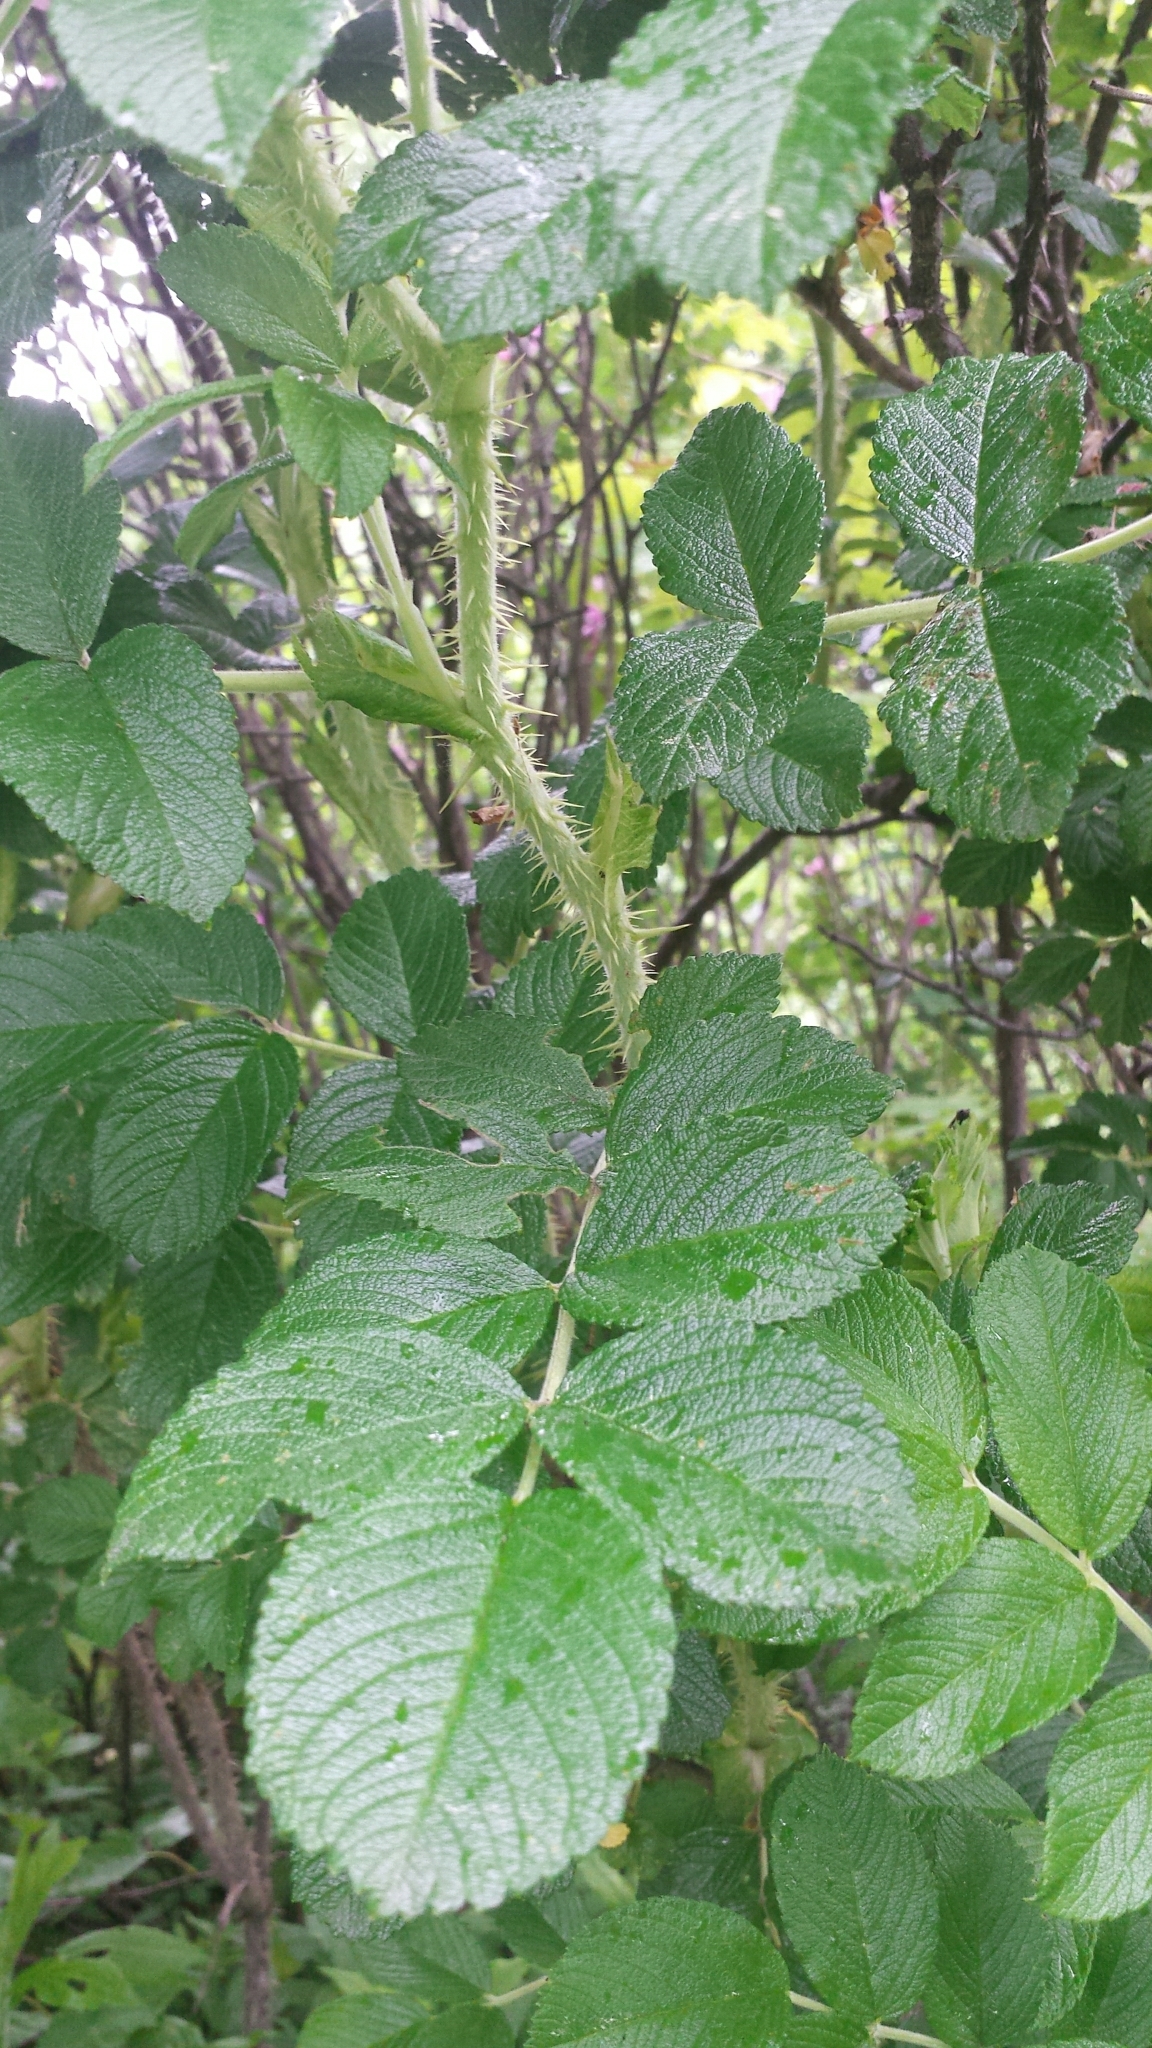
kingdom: Plantae
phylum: Tracheophyta
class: Magnoliopsida
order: Rosales
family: Rosaceae
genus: Rosa
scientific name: Rosa rugosa
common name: Japanese rose
